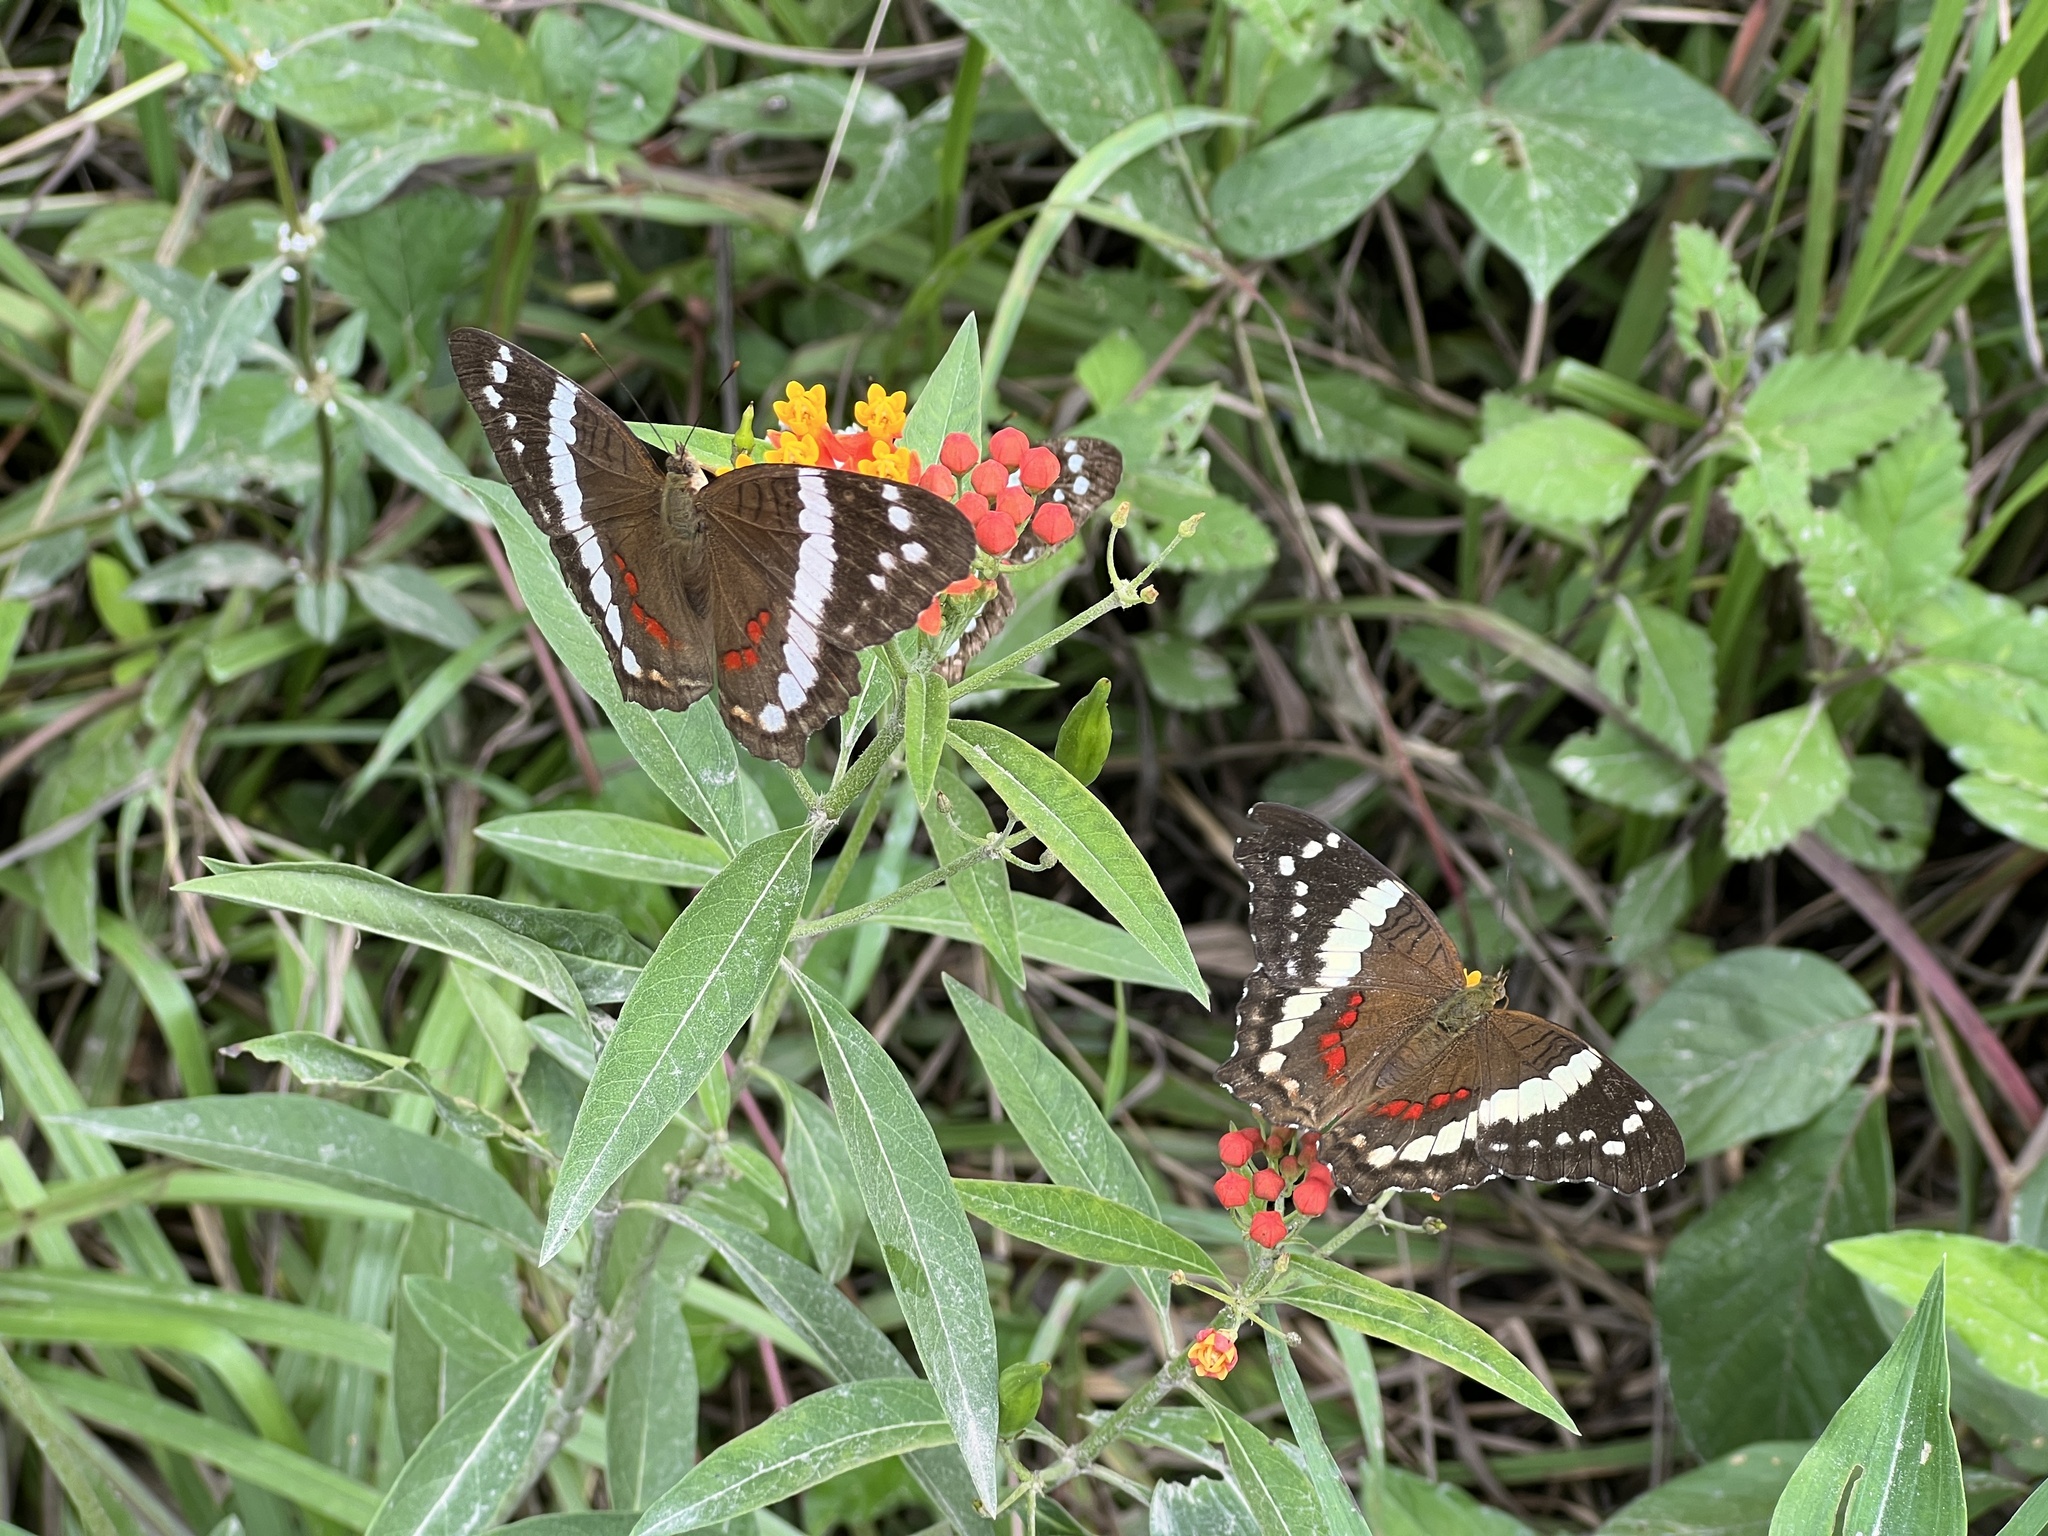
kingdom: Animalia
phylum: Arthropoda
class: Insecta
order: Lepidoptera
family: Nymphalidae
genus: Anartia
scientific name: Anartia fatima
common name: Banded peacock
